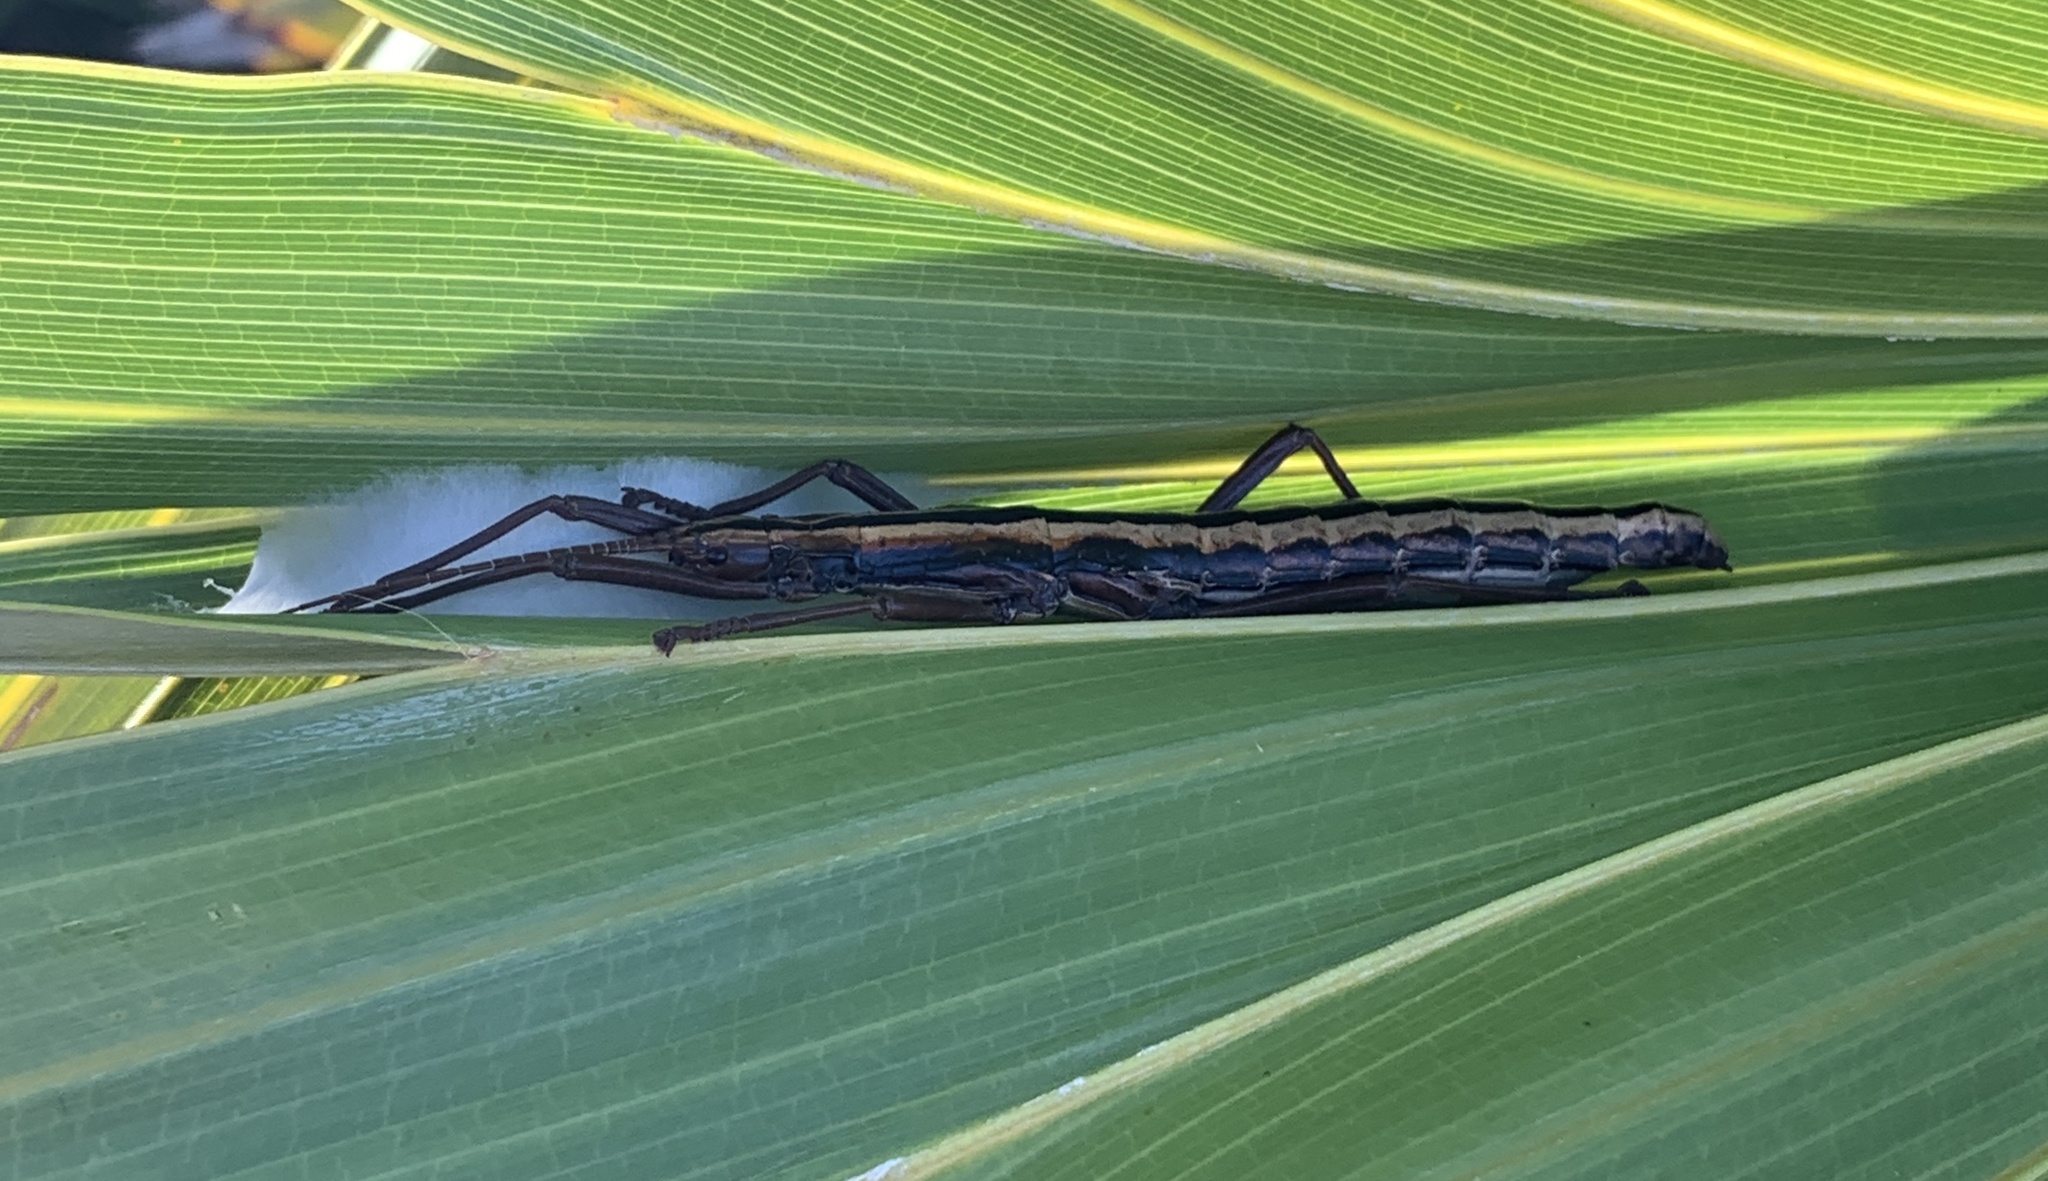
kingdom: Animalia
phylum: Arthropoda
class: Insecta
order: Phasmida
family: Pseudophasmatidae
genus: Anisomorpha
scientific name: Anisomorpha buprestoides
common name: Florida stick insect
